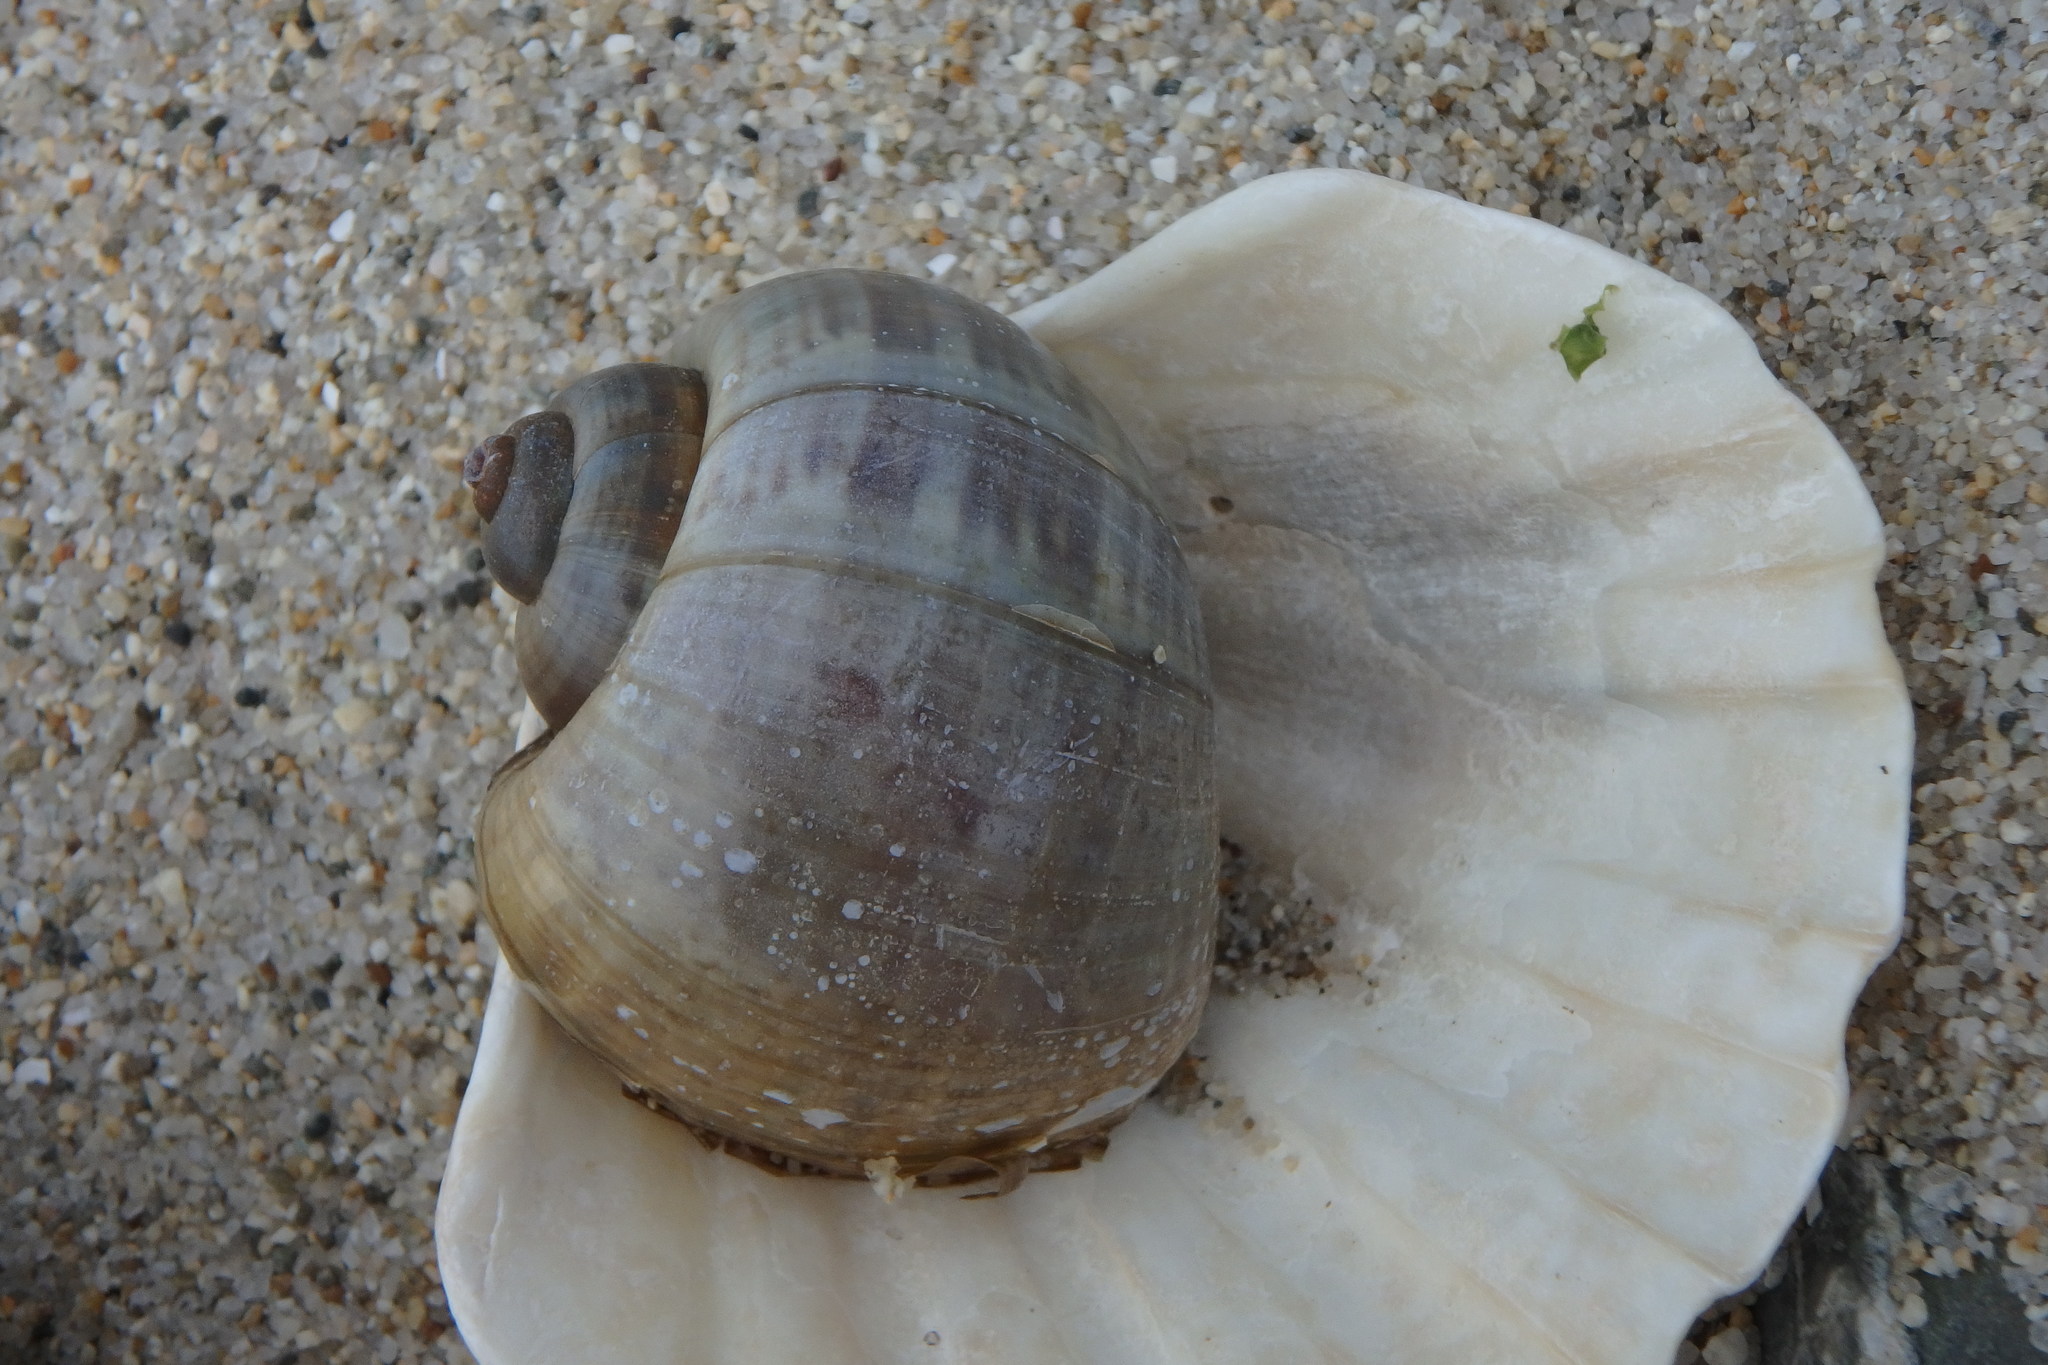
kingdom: Animalia
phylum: Mollusca
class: Gastropoda
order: Architaenioglossa
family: Ampullariidae
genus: Pomacea
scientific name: Pomacea canaliculata
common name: Channeled applesnail
